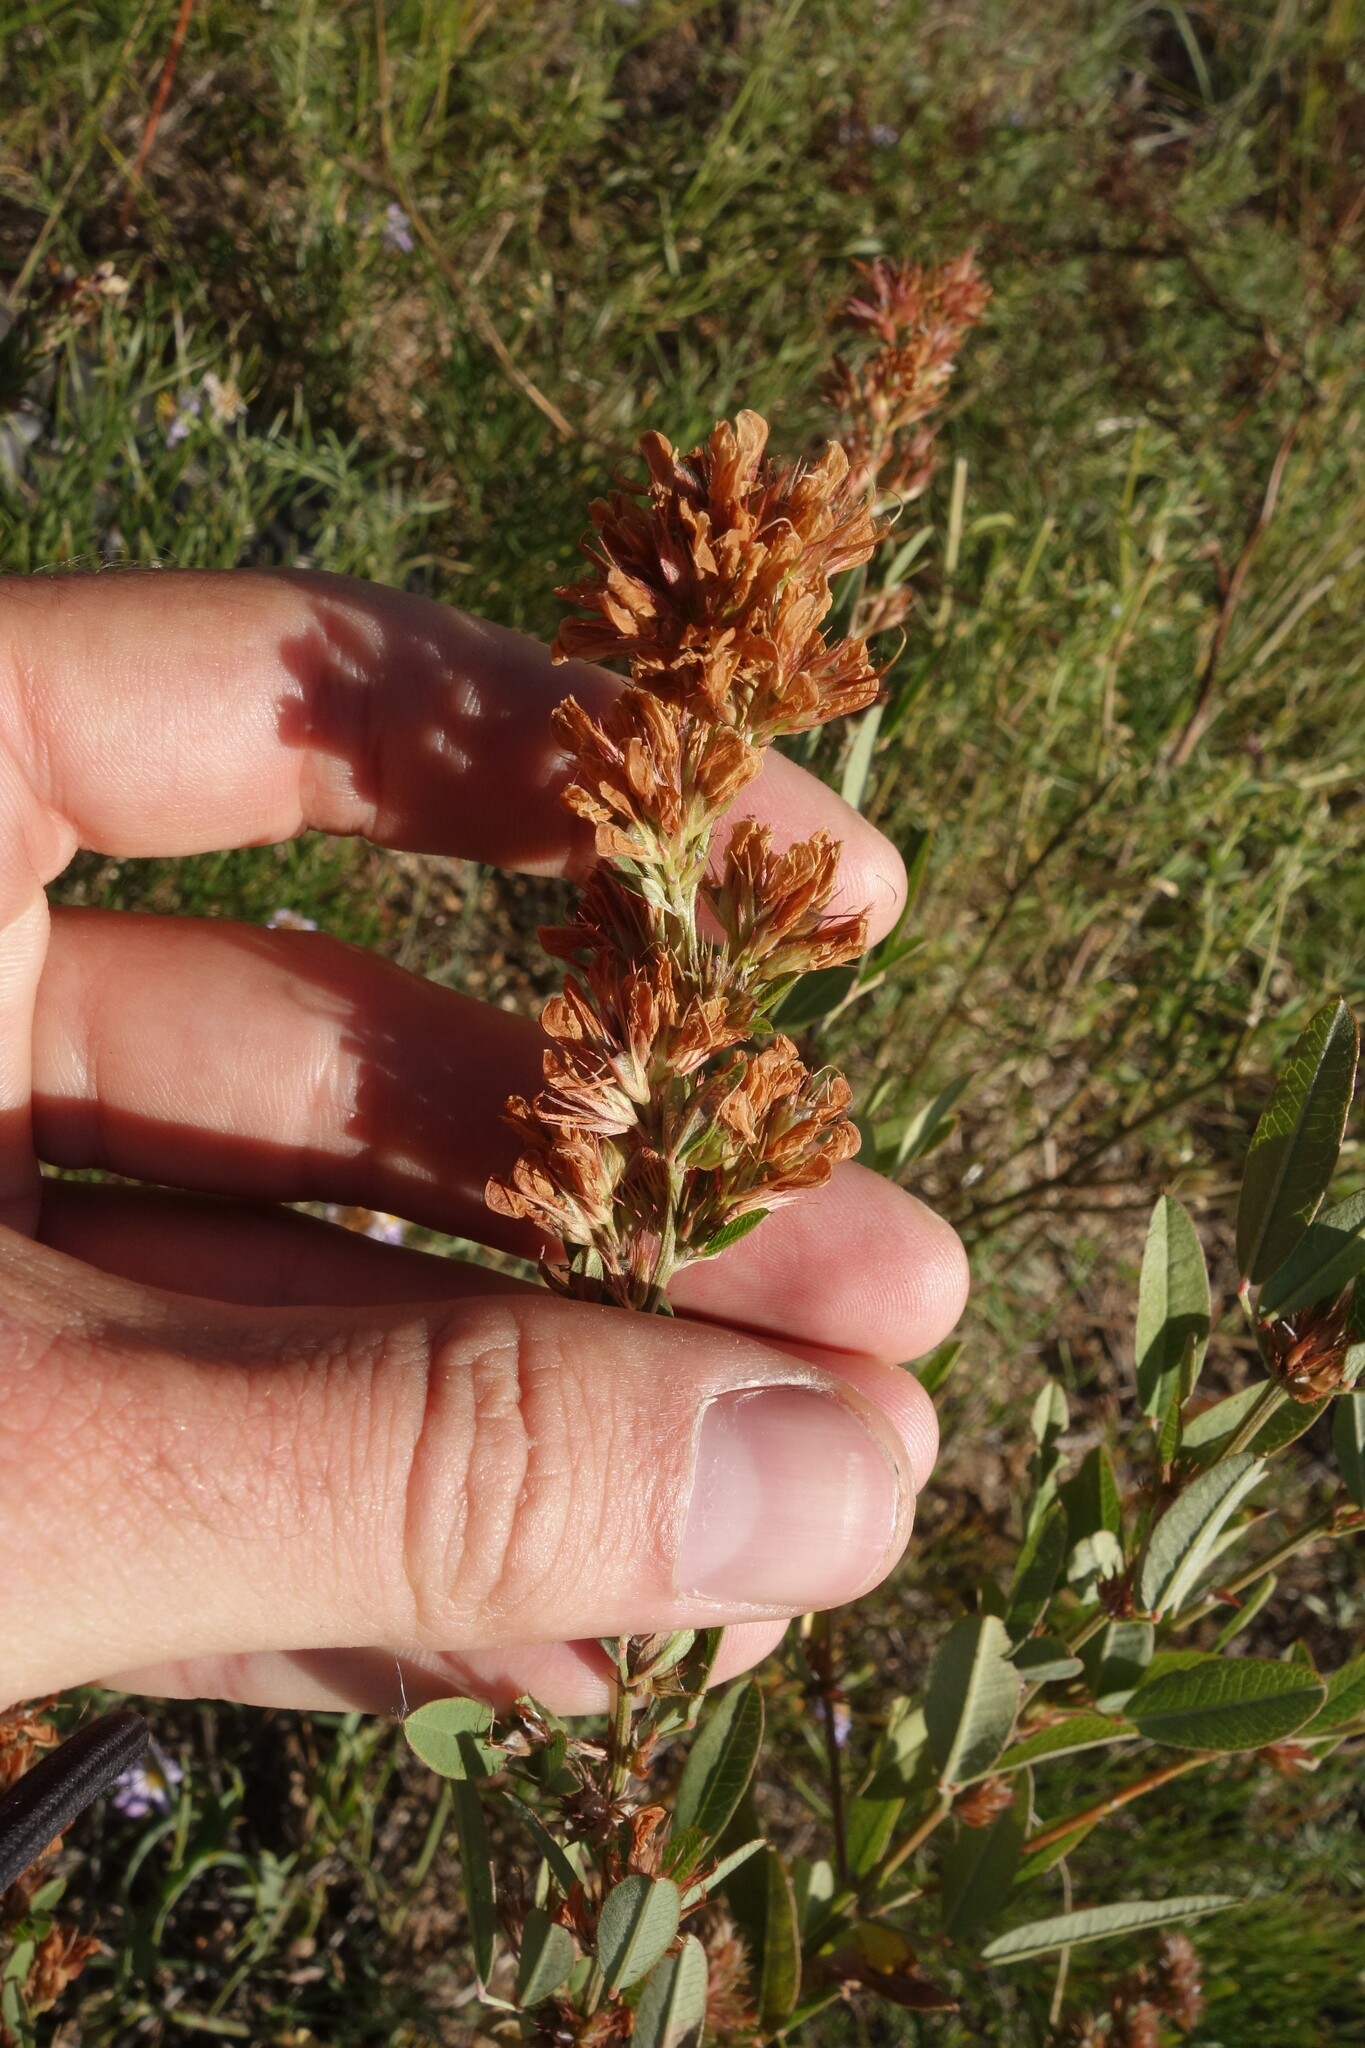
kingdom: Plantae
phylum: Tracheophyta
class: Magnoliopsida
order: Fabales
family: Fabaceae
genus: Lespedeza
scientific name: Lespedeza daurica
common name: Dahurian lespedeza
